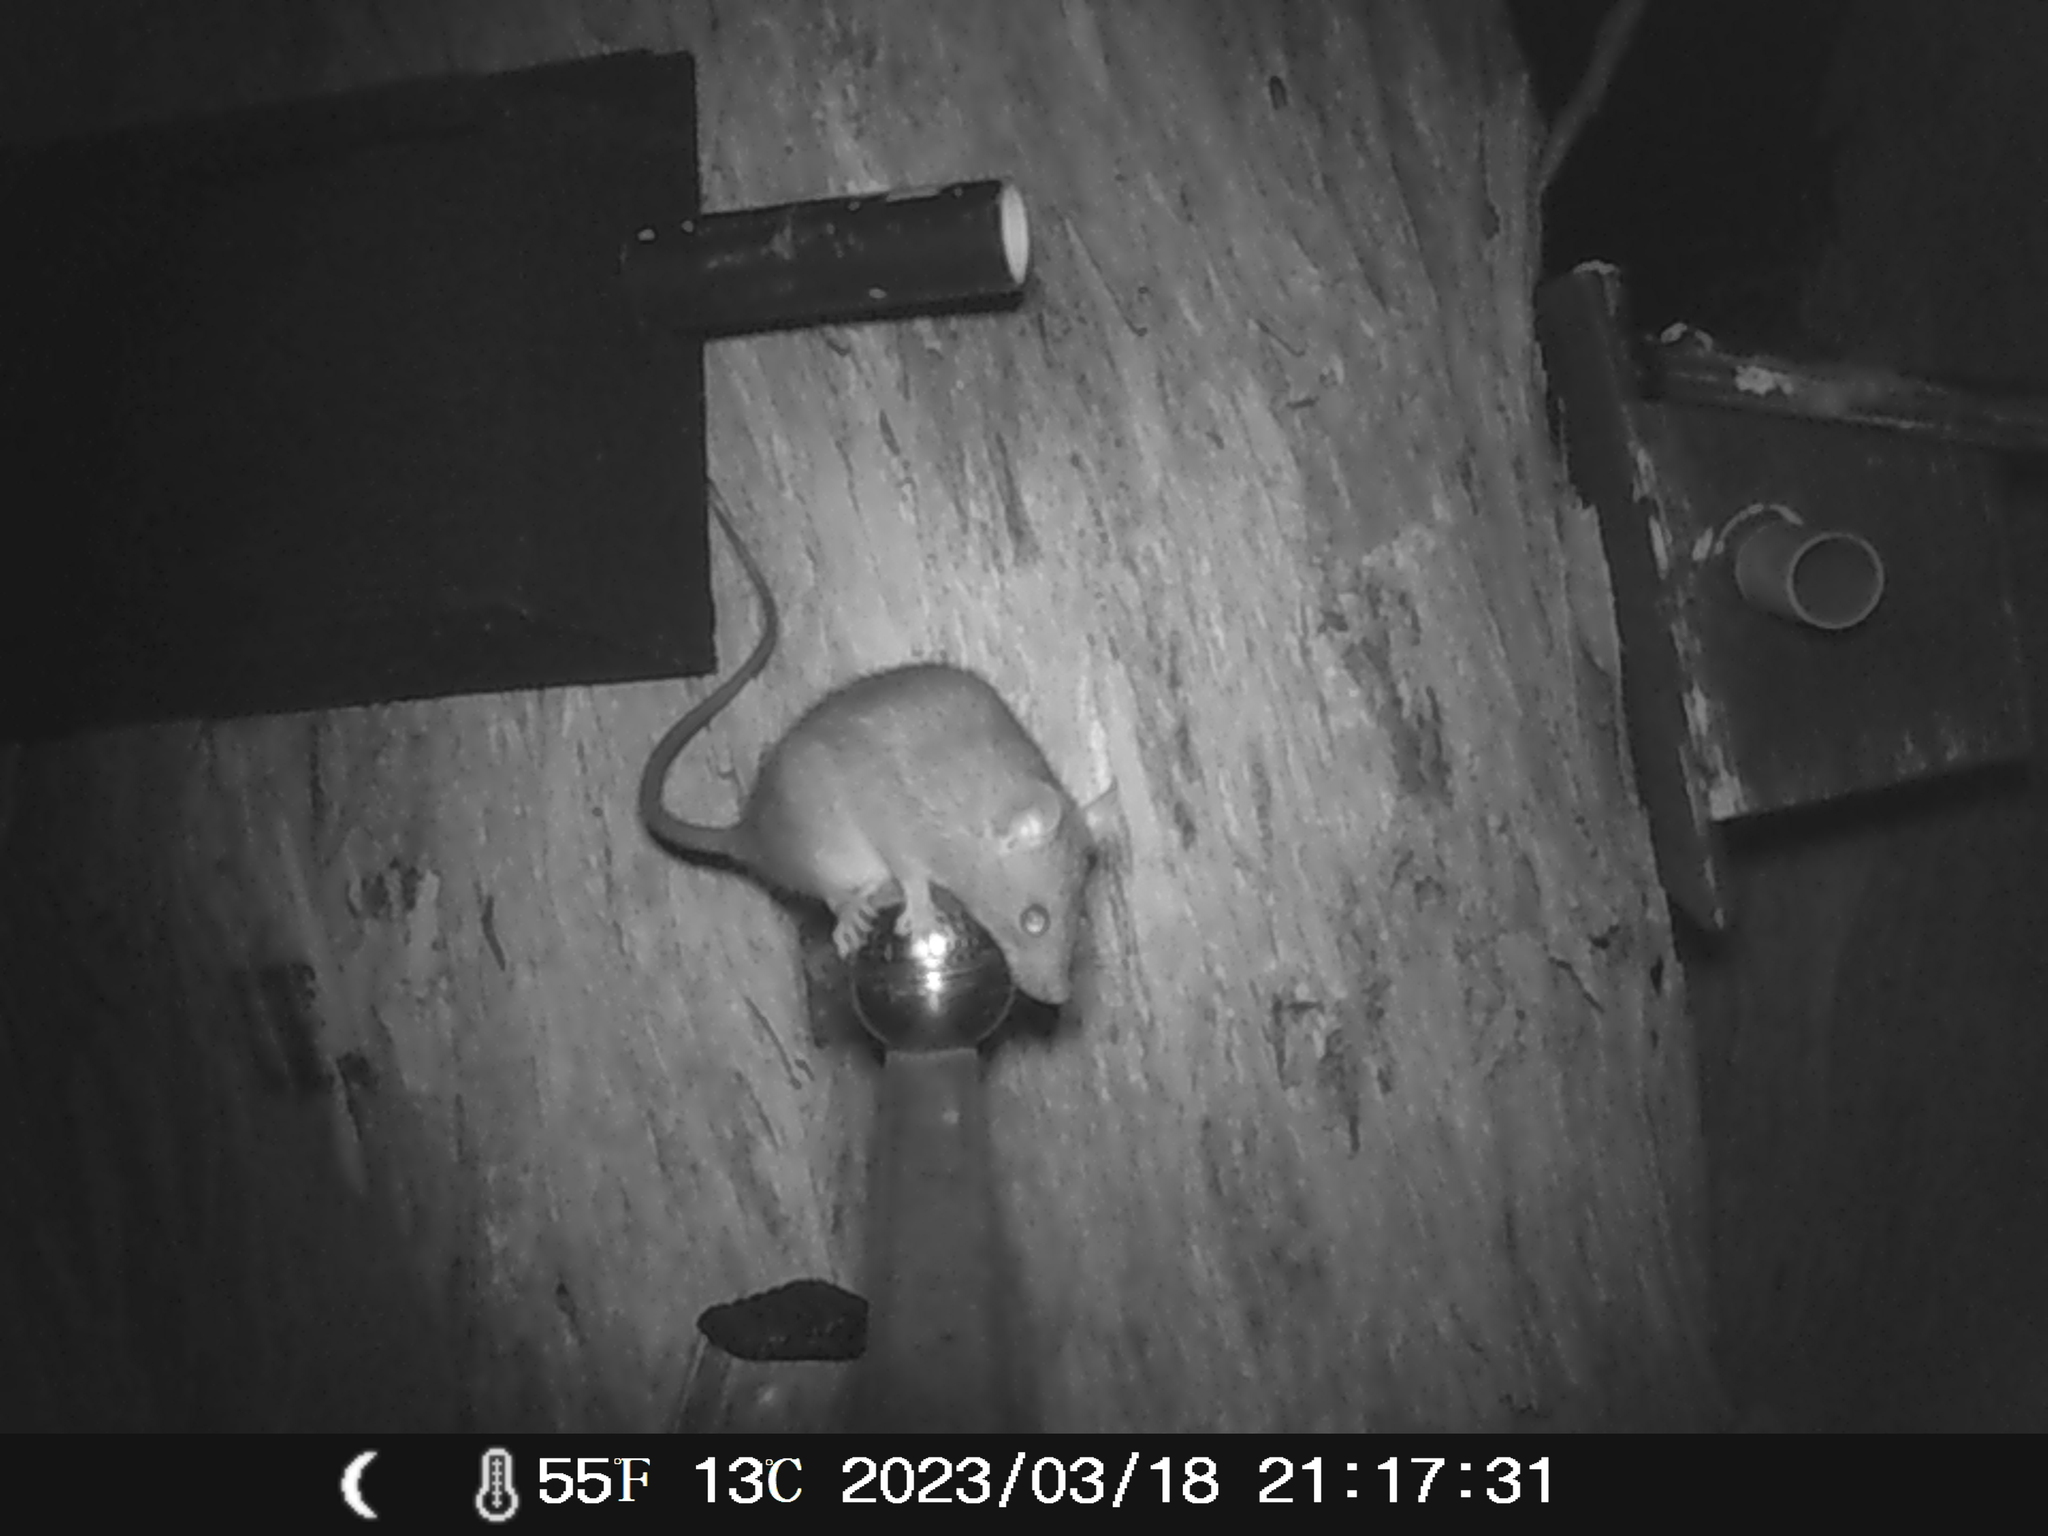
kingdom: Animalia
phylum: Chordata
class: Mammalia
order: Rodentia
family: Muridae
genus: Rattus
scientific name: Rattus rattus
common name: Black rat
